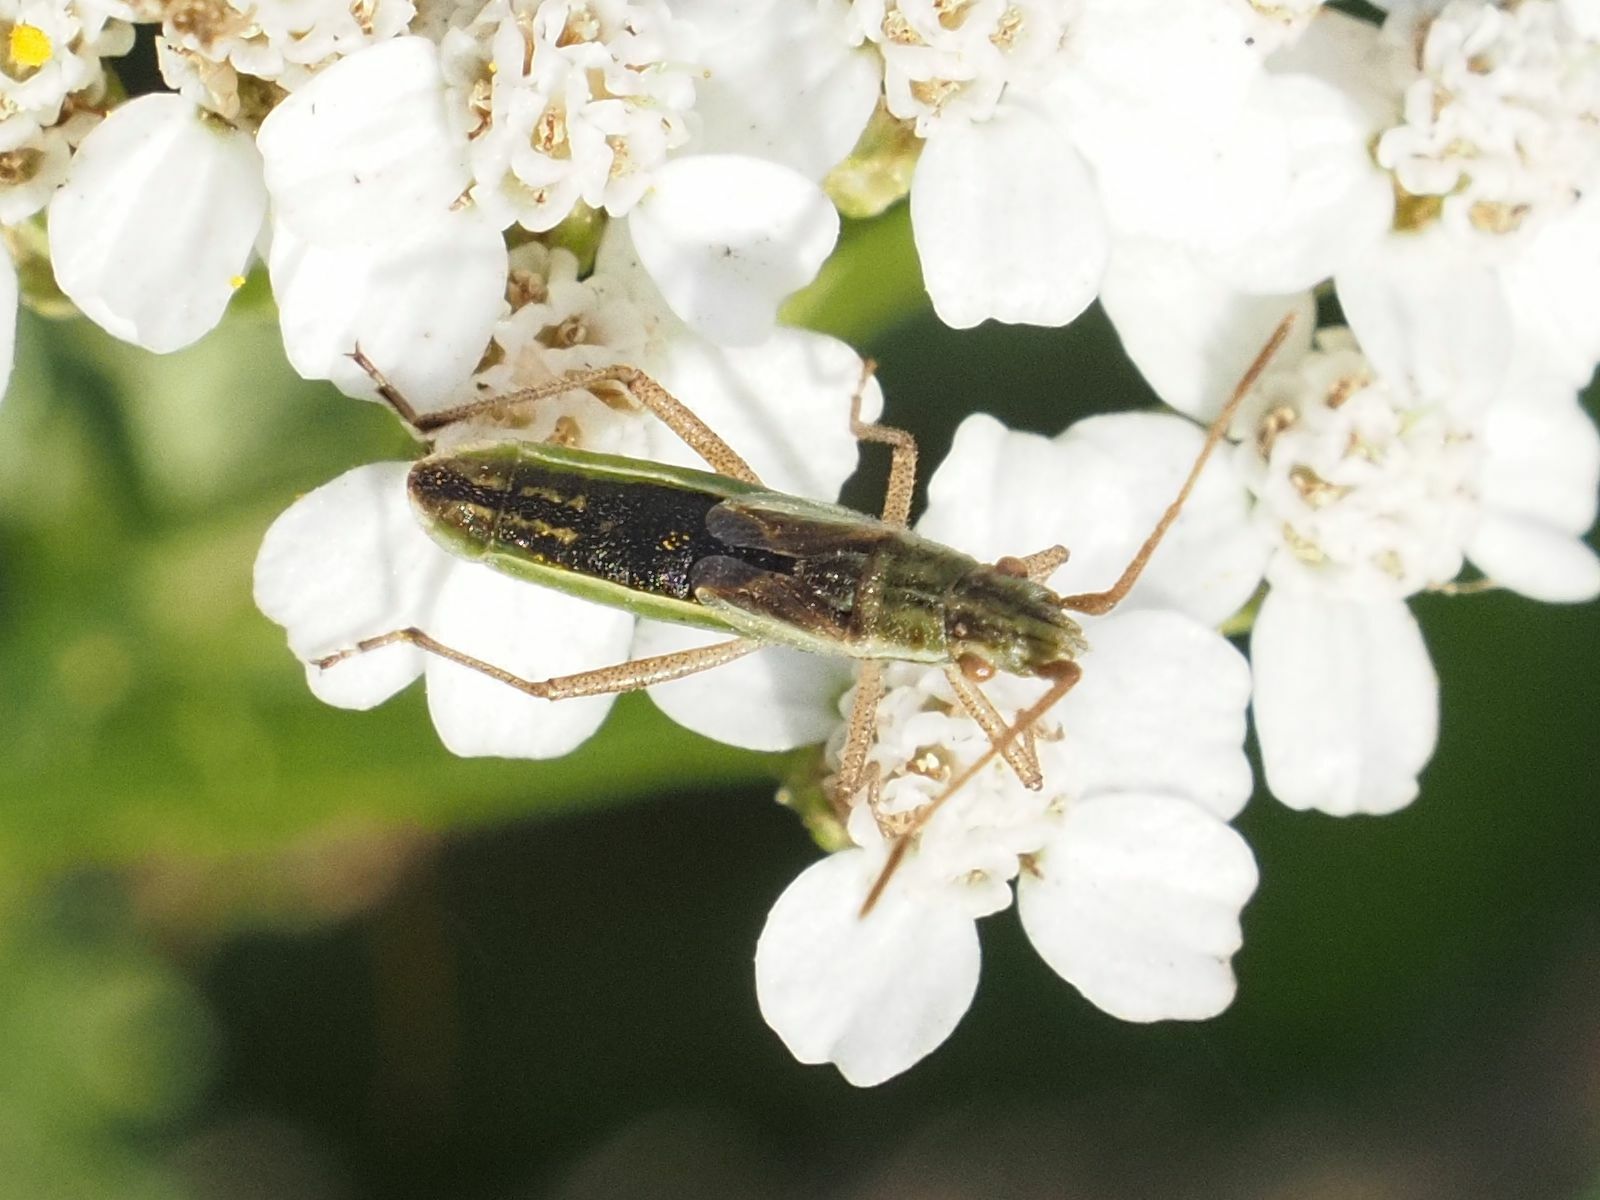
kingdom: Animalia
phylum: Arthropoda
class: Insecta
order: Hemiptera
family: Rhopalidae
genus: Myrmus
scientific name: Myrmus miriformis
